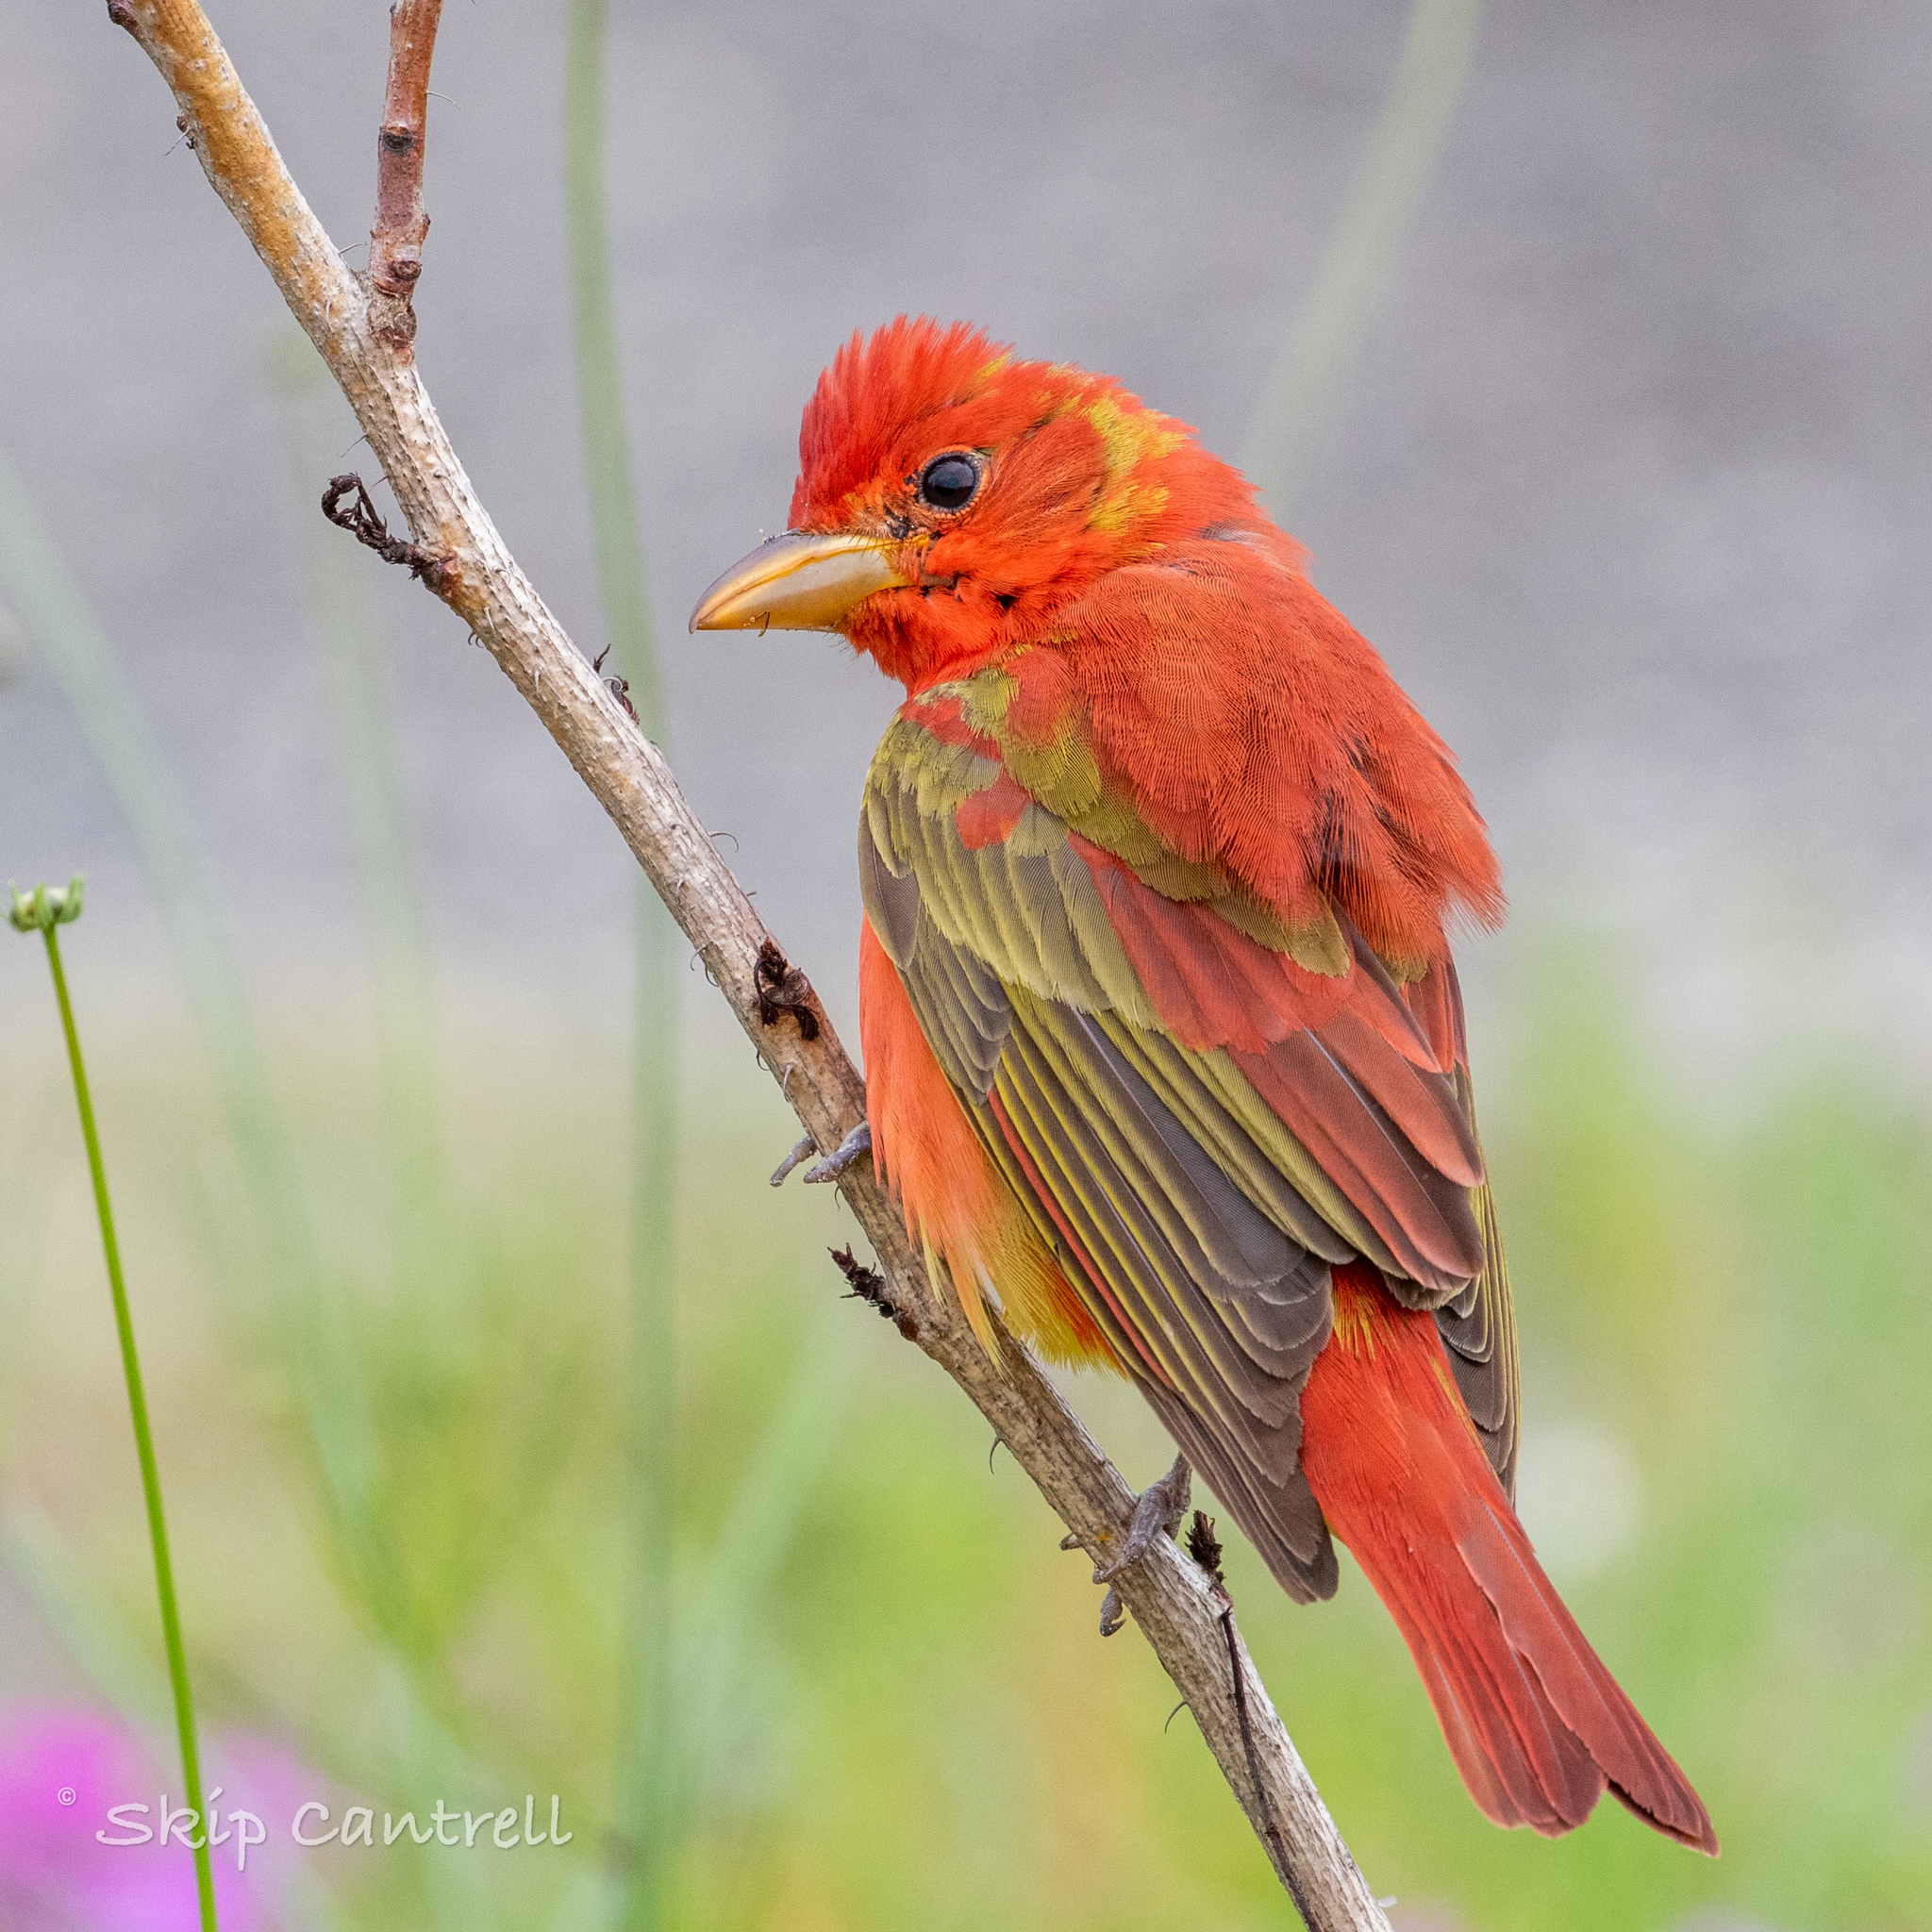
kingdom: Animalia
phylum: Chordata
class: Aves
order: Passeriformes
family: Cardinalidae
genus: Piranga
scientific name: Piranga rubra
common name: Summer tanager
